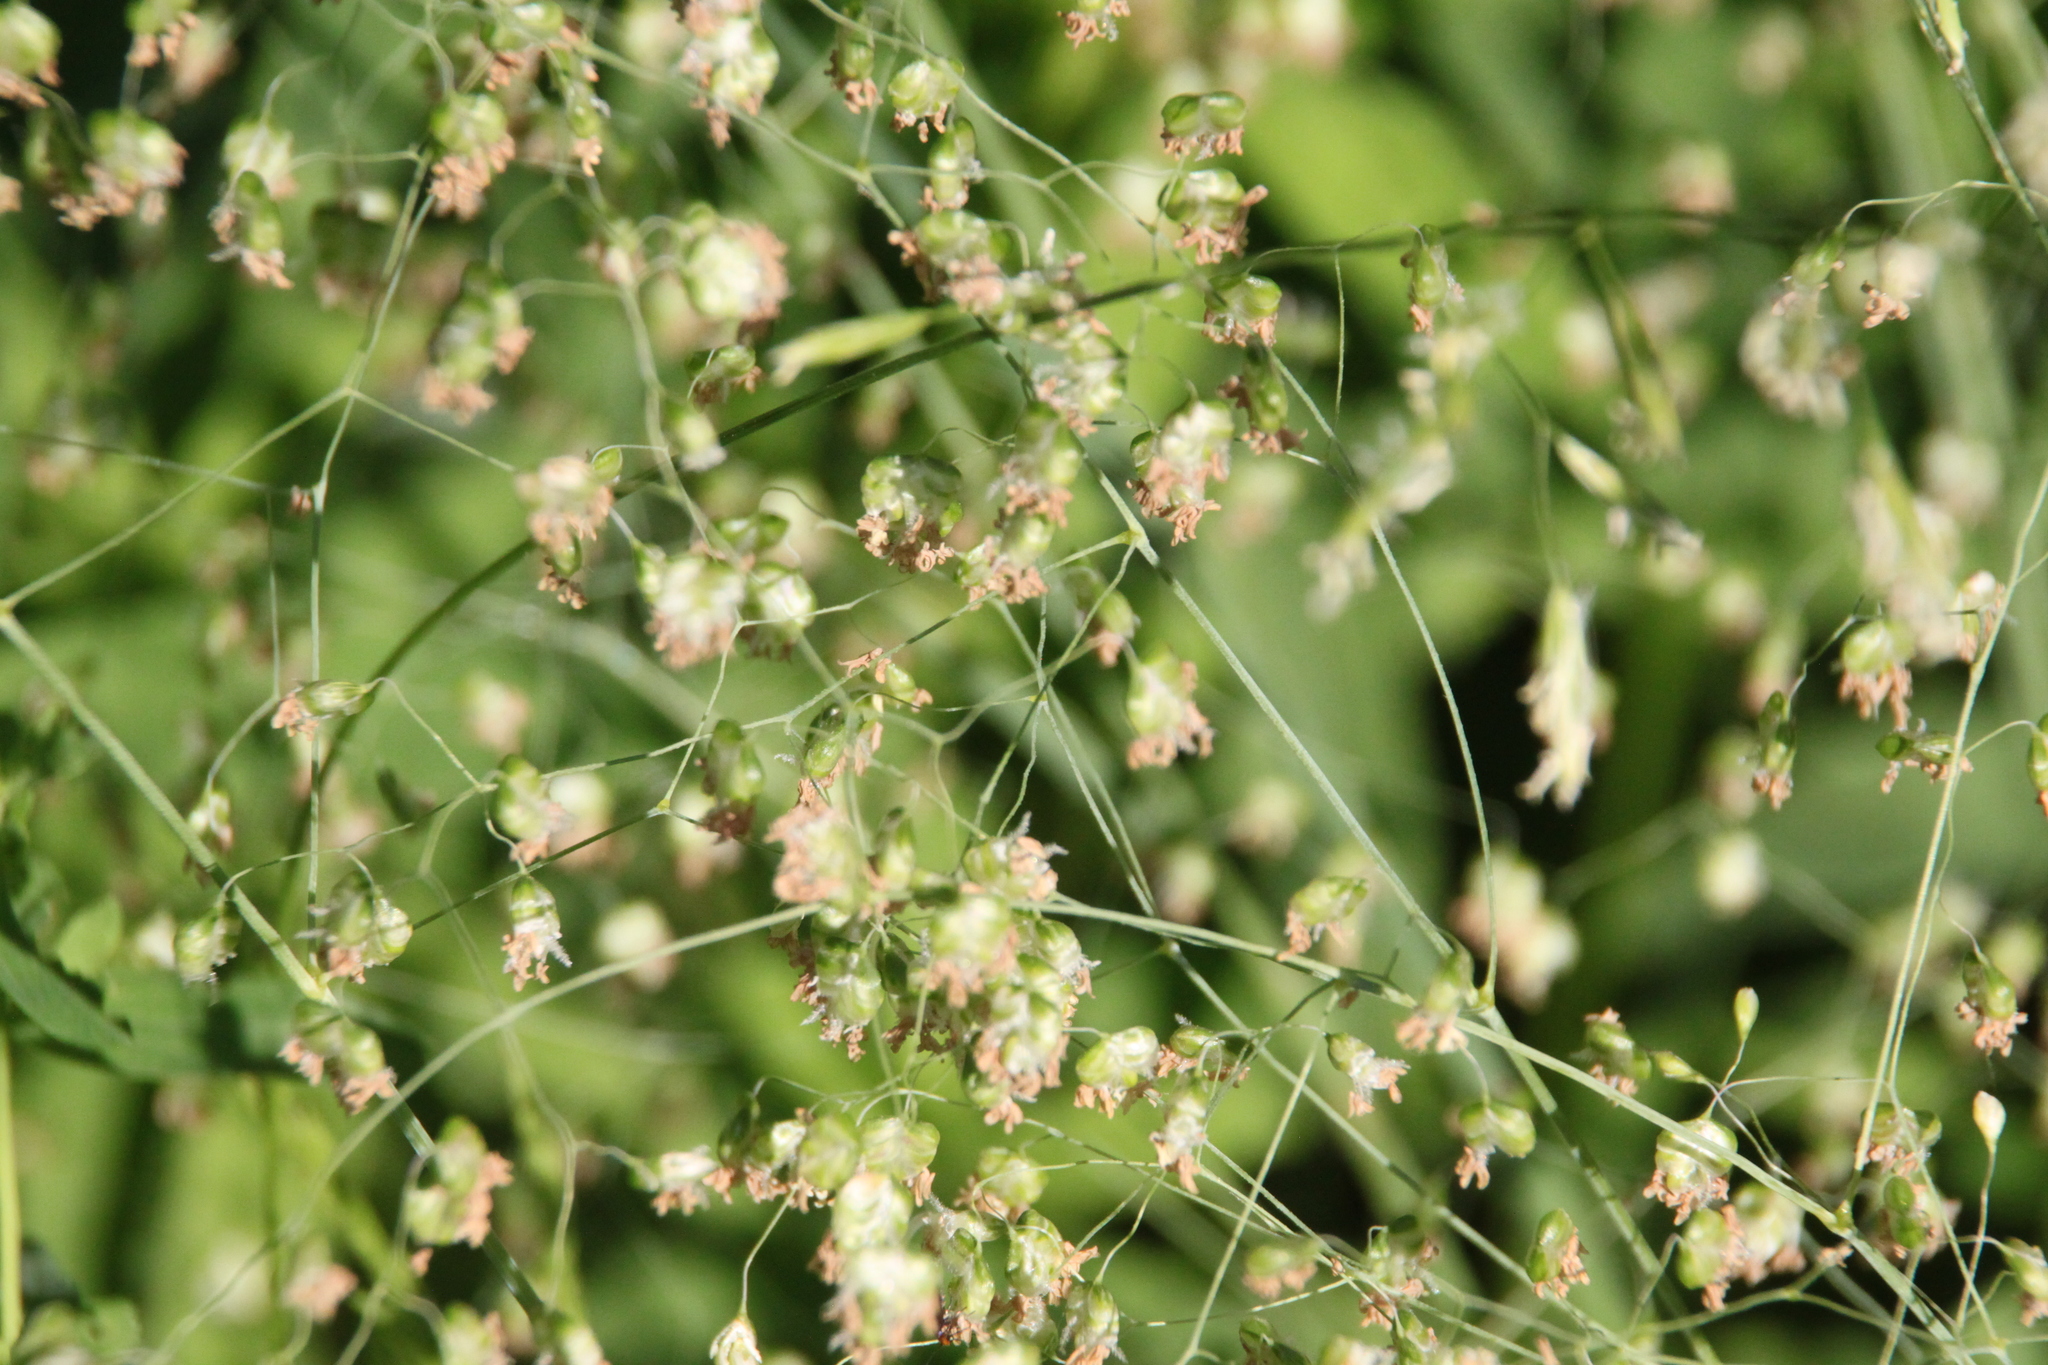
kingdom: Plantae
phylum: Tracheophyta
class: Liliopsida
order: Poales
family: Poaceae
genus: Briza
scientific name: Briza media
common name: Quaking grass
